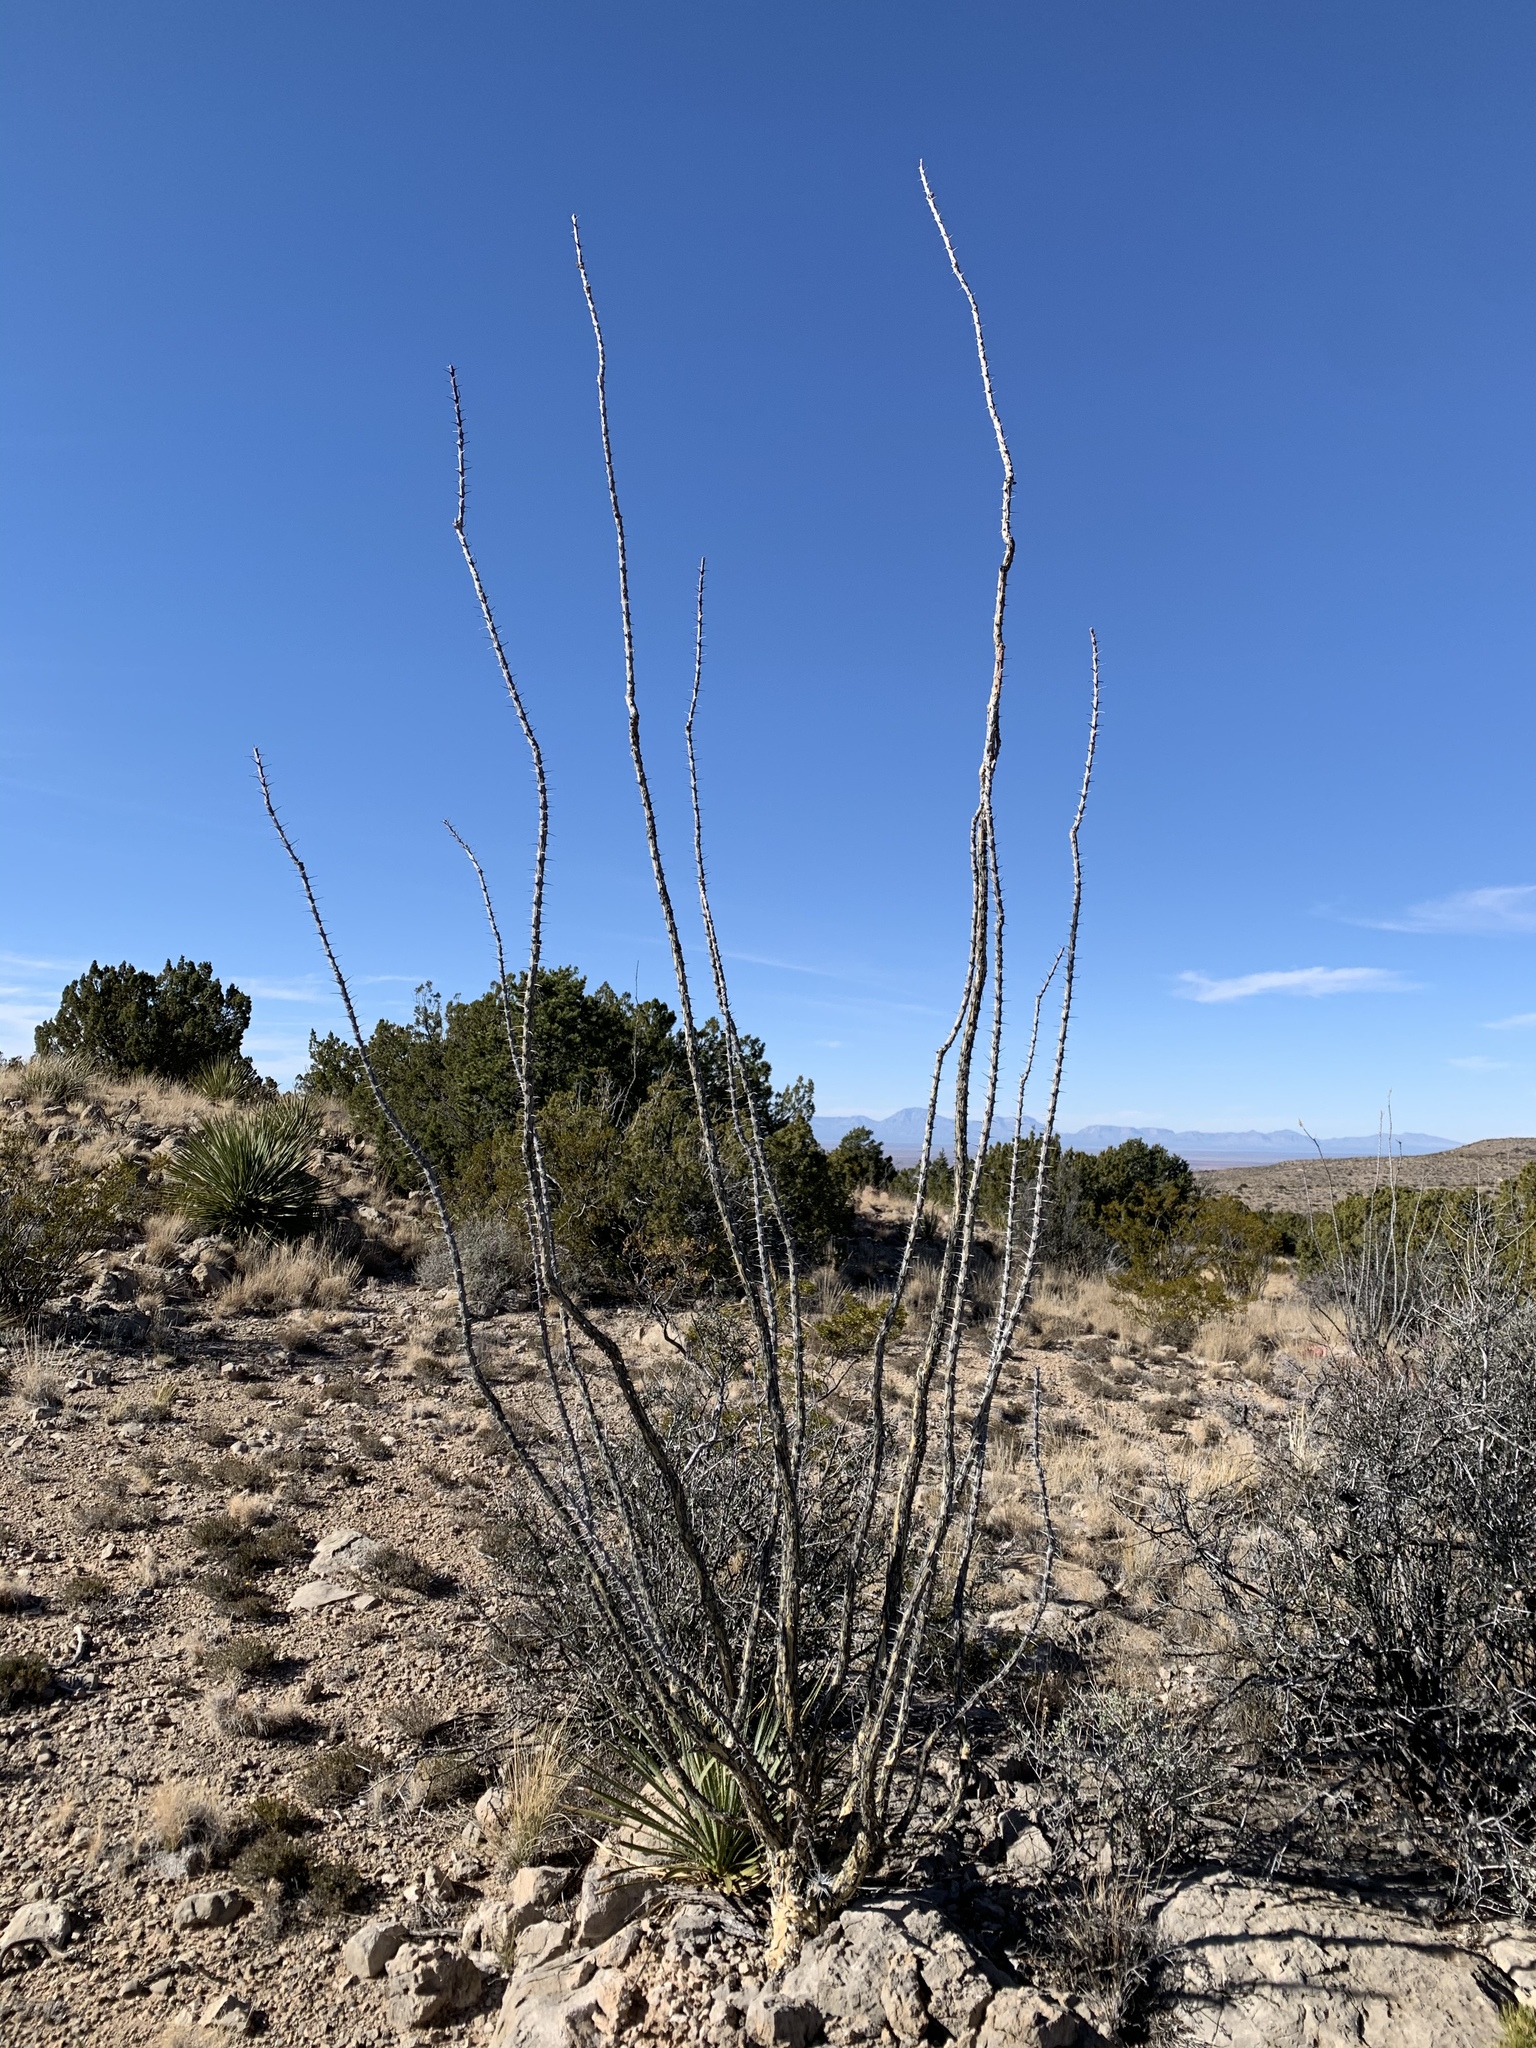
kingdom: Plantae
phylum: Tracheophyta
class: Magnoliopsida
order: Ericales
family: Fouquieriaceae
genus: Fouquieria
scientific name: Fouquieria splendens
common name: Vine-cactus
